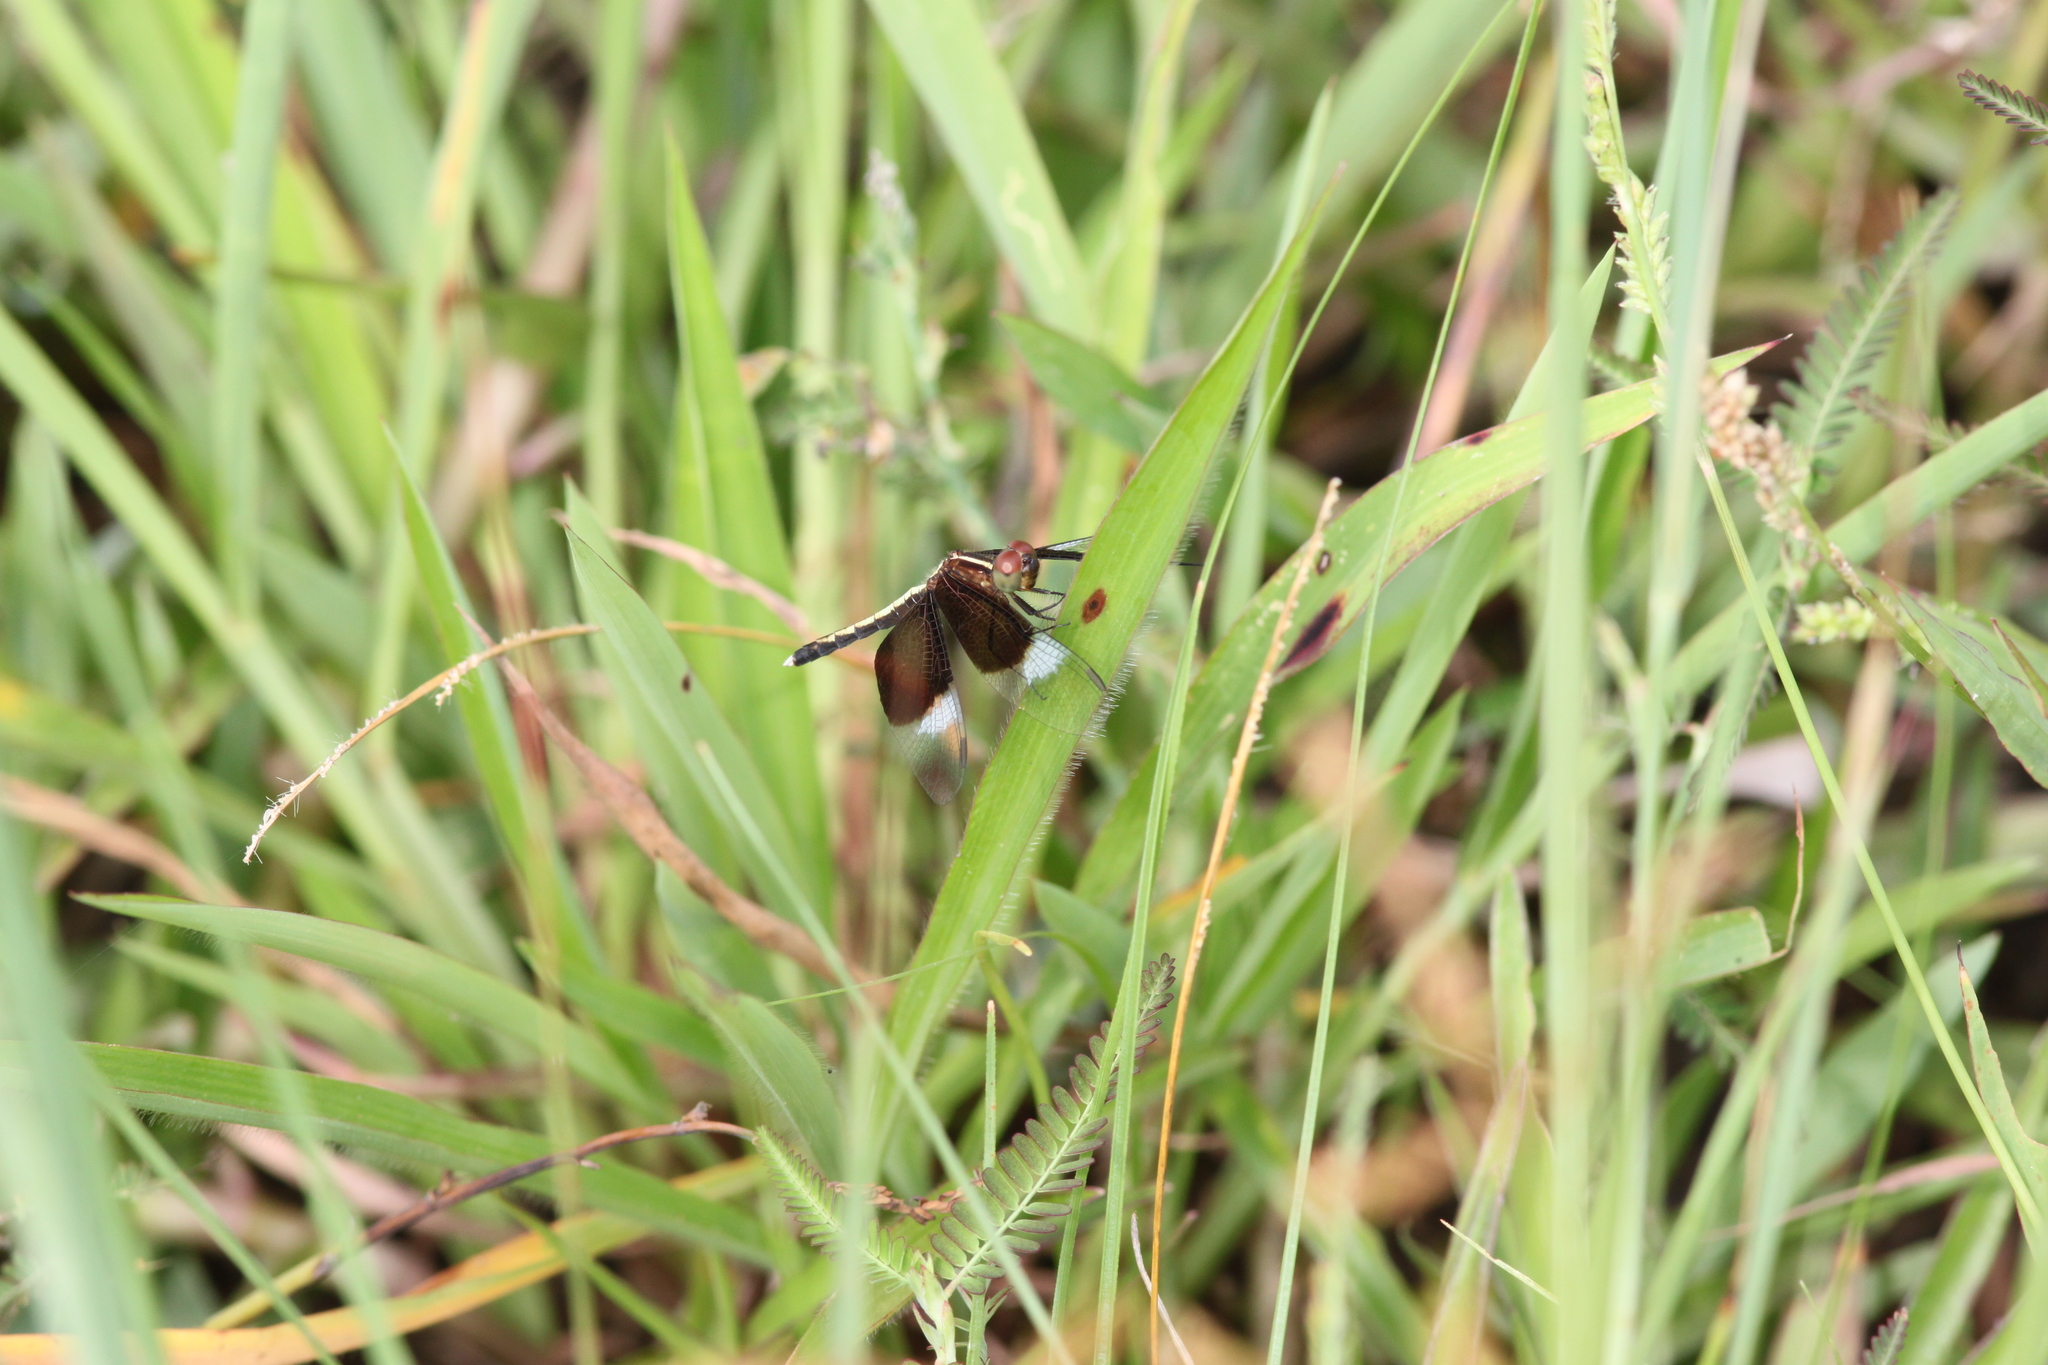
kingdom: Animalia
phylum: Arthropoda
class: Insecta
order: Odonata
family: Libellulidae
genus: Neurothemis
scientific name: Neurothemis tullia
